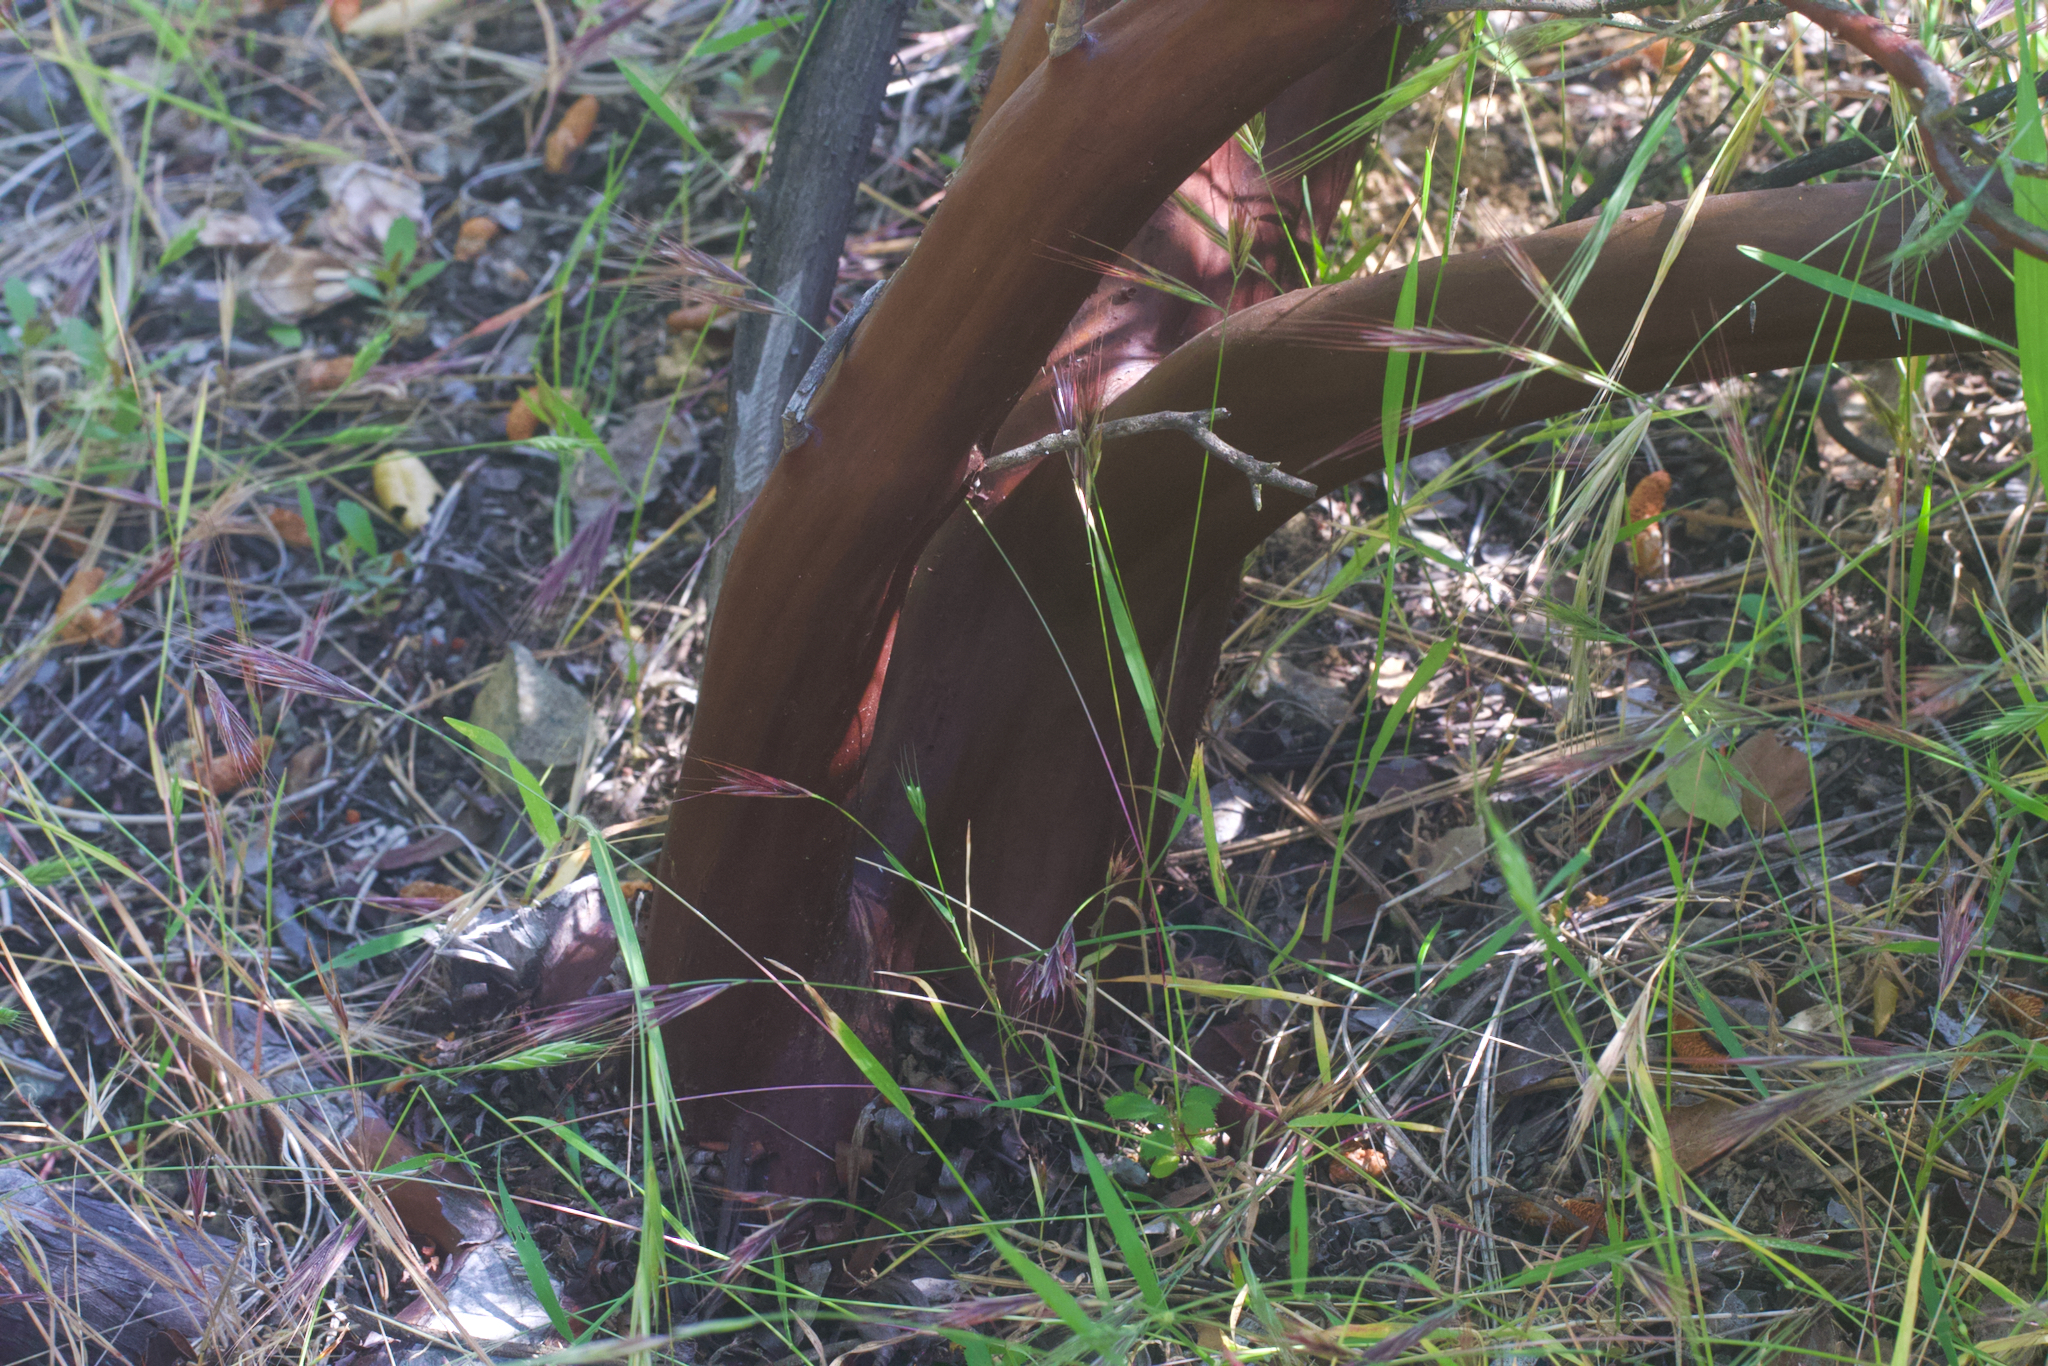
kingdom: Plantae
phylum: Tracheophyta
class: Magnoliopsida
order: Ericales
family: Ericaceae
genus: Arctostaphylos
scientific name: Arctostaphylos manzanita
